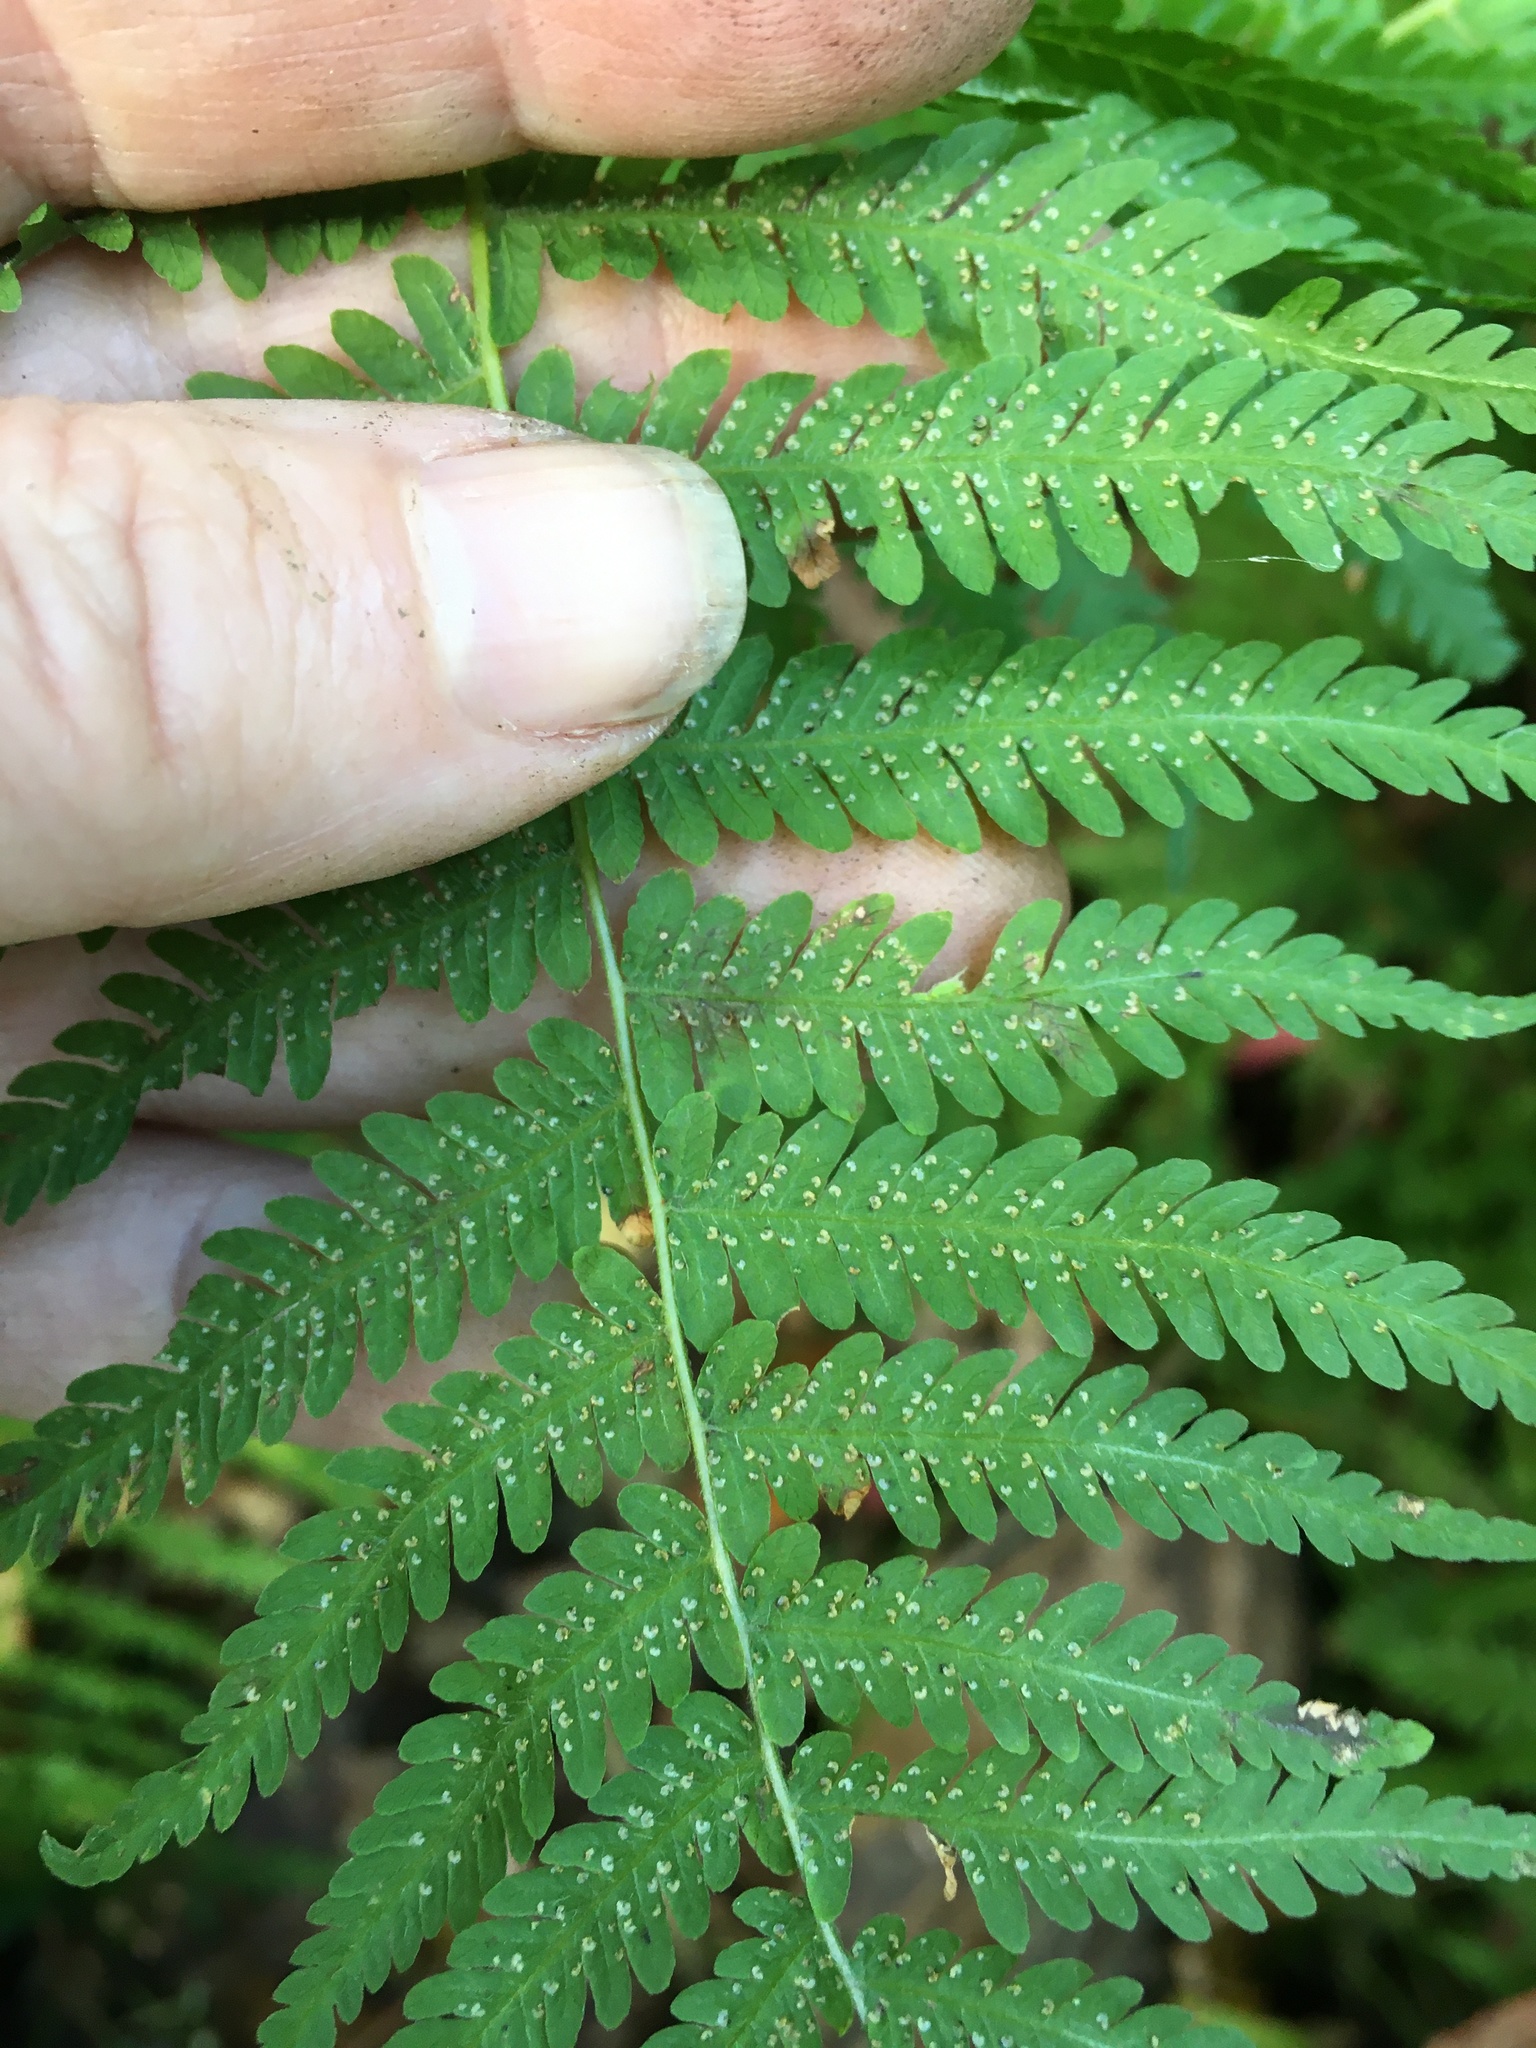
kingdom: Plantae
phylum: Tracheophyta
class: Polypodiopsida
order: Polypodiales
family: Thelypteridaceae
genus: Amauropelta
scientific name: Amauropelta noveboracensis
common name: New york fern
